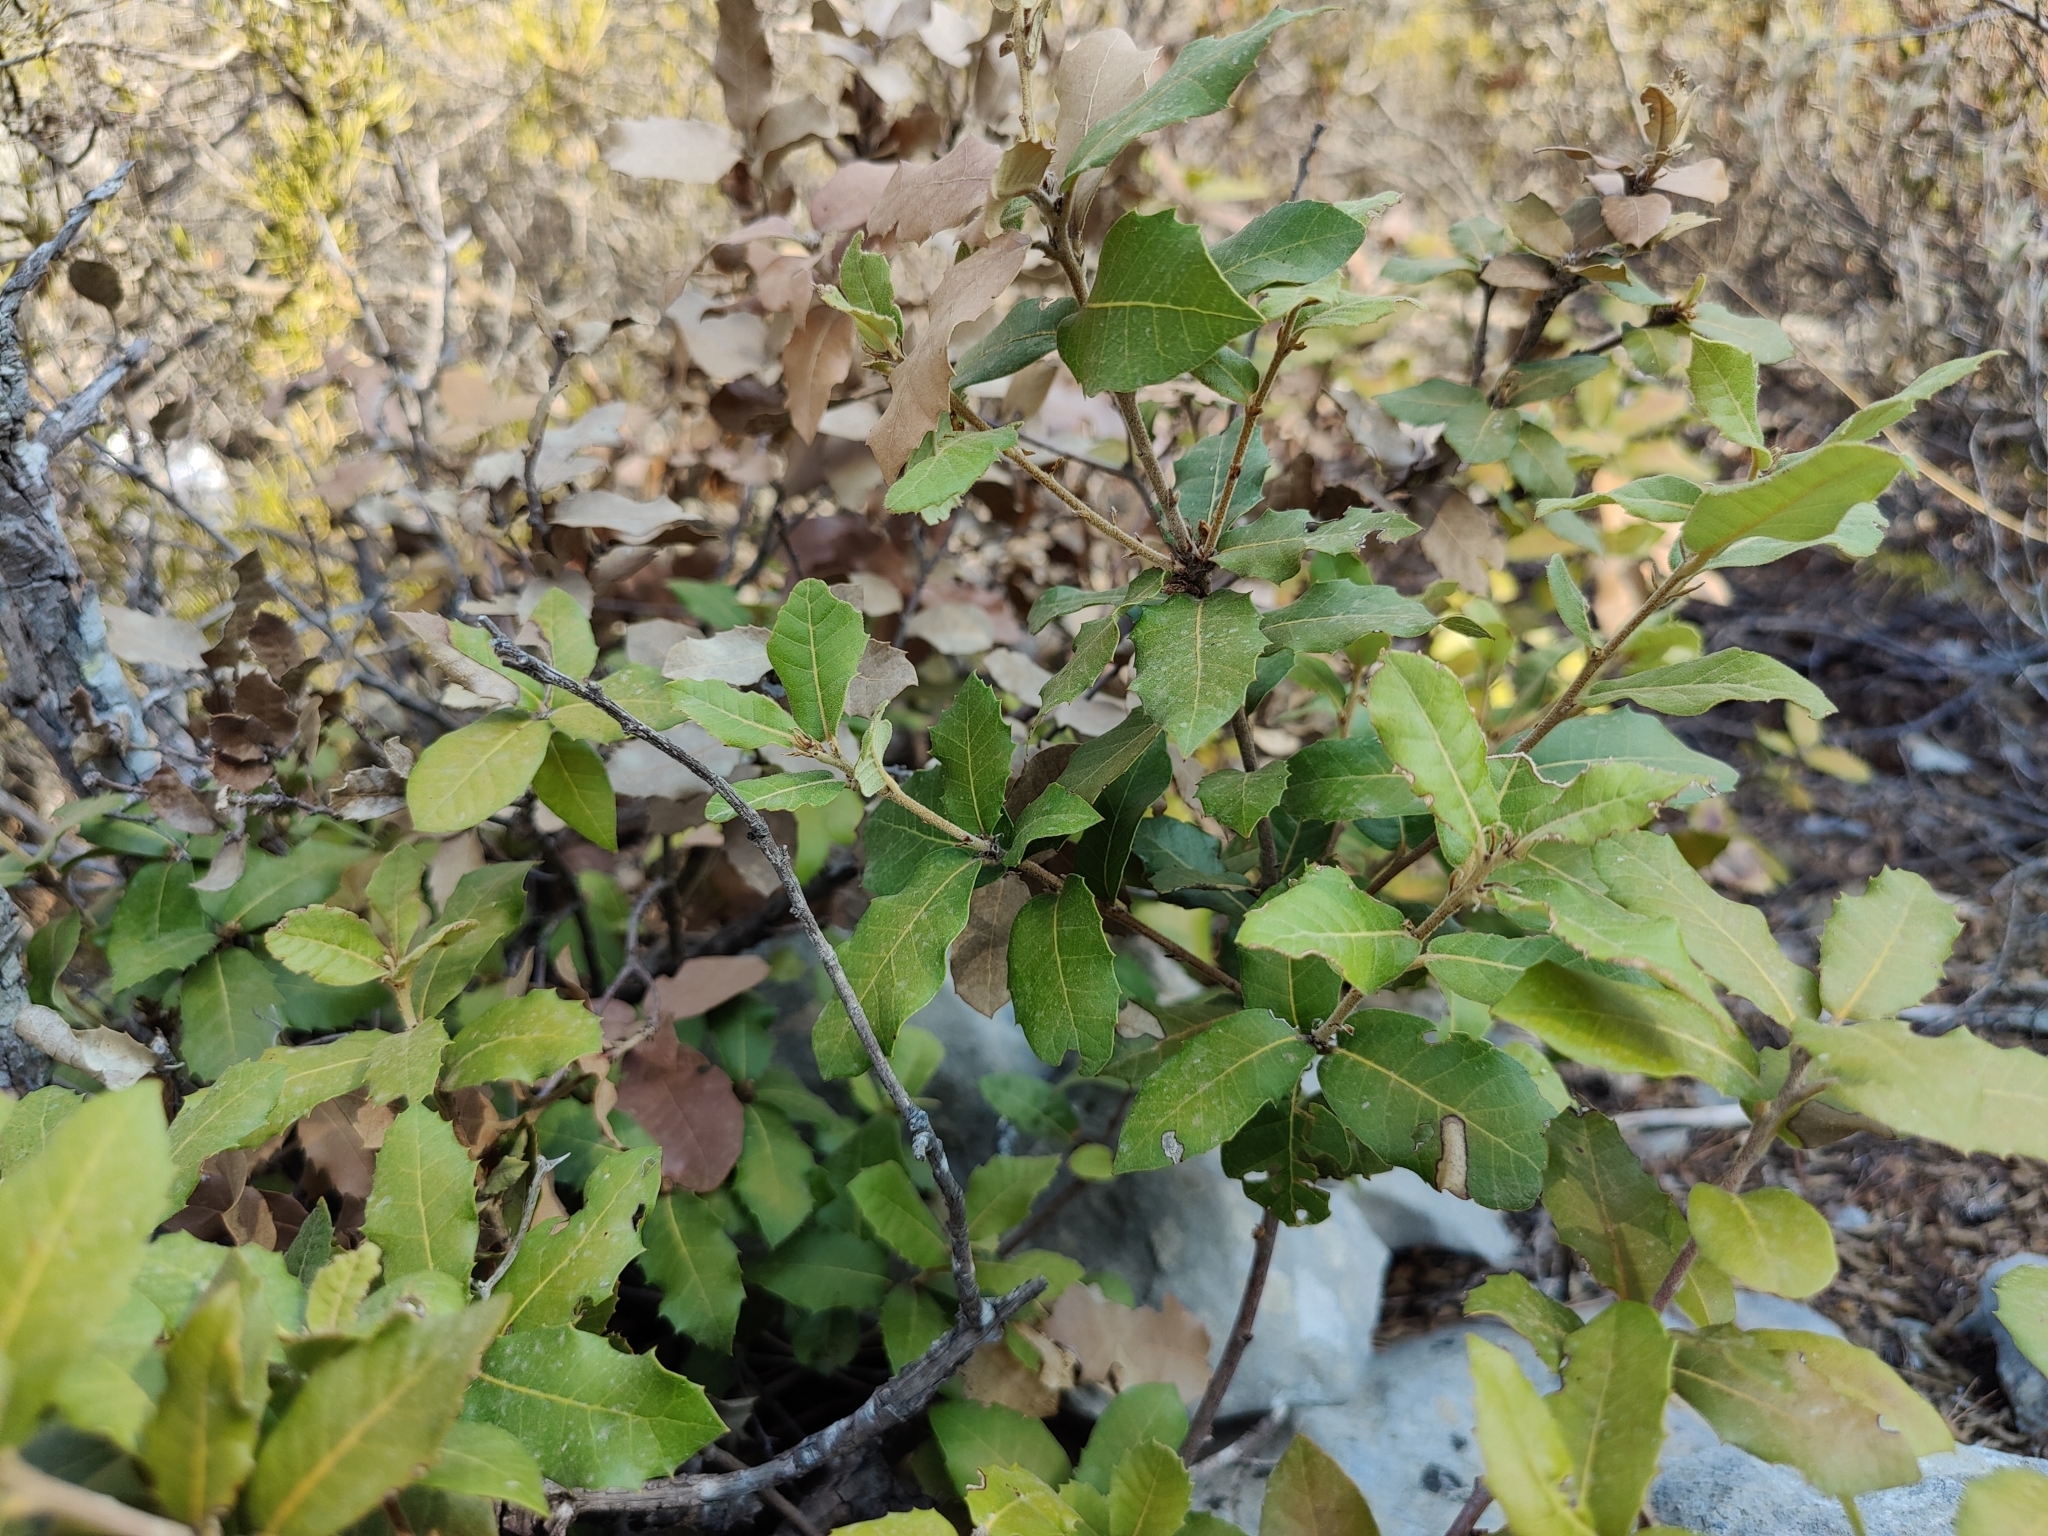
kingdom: Plantae
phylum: Tracheophyta
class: Magnoliopsida
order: Fagales
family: Fagaceae
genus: Quercus
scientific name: Quercus ilex
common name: Evergreen oak
